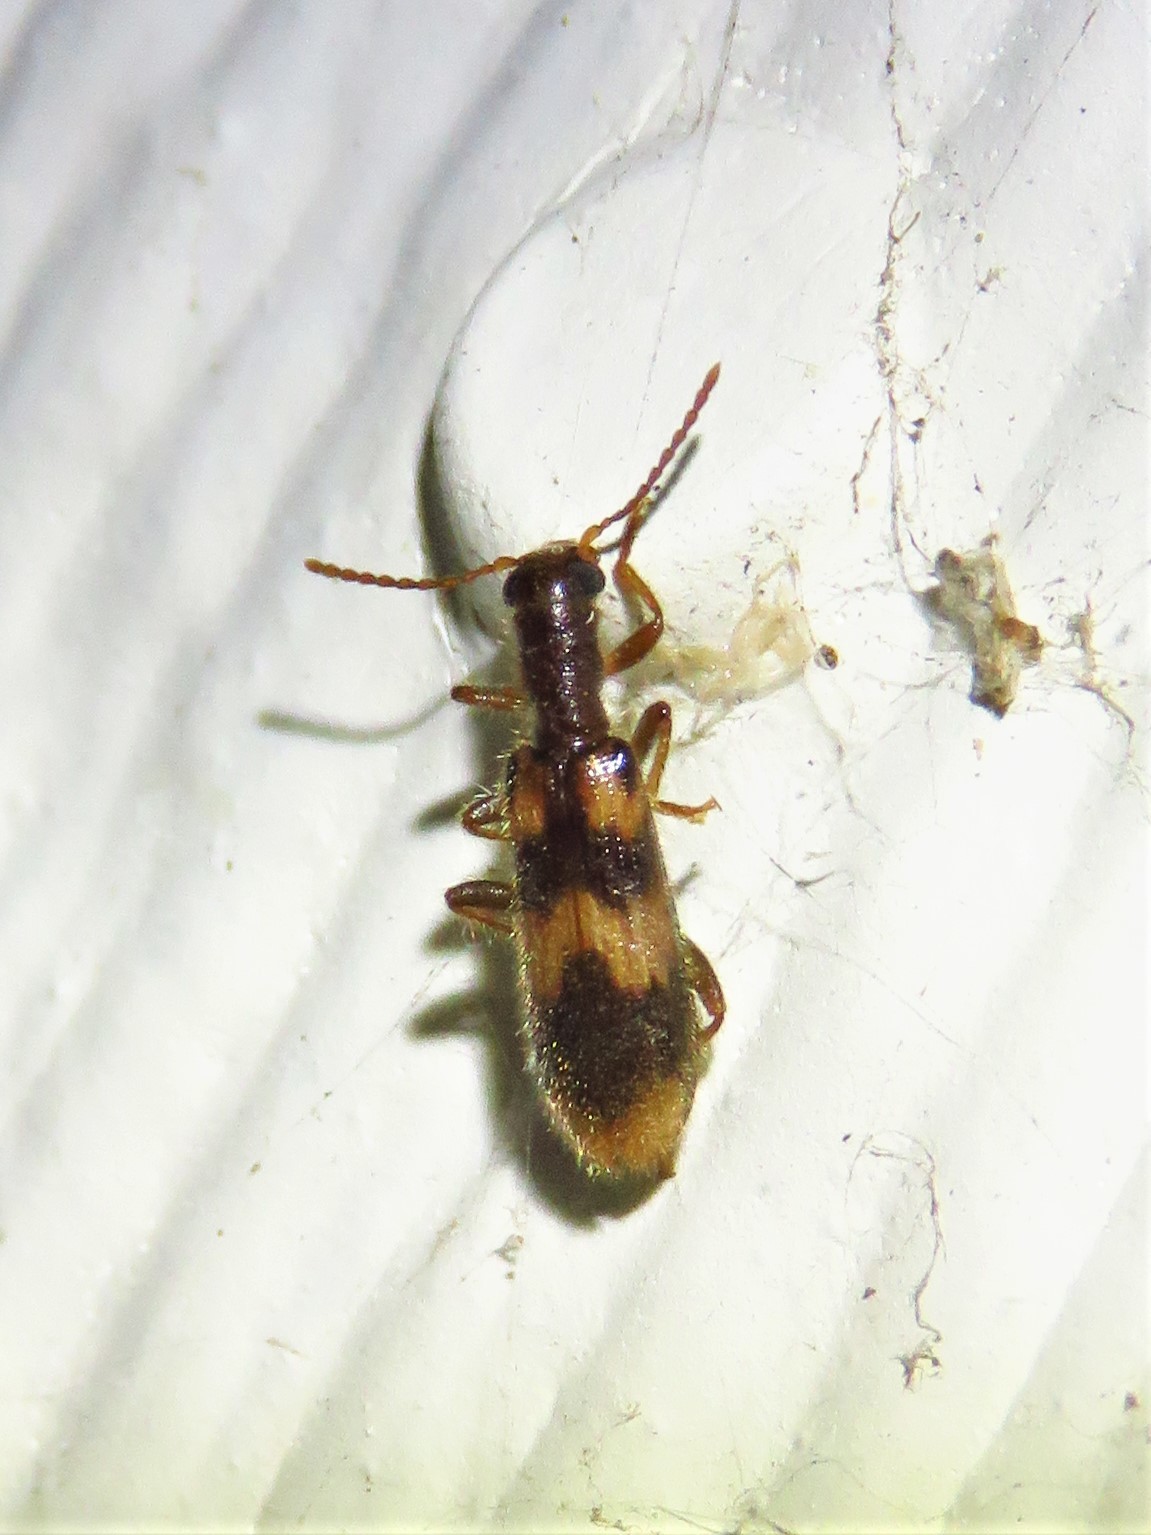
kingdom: Animalia
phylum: Arthropoda
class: Insecta
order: Coleoptera
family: Cleridae
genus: Cymatodera
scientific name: Cymatodera sirpata
